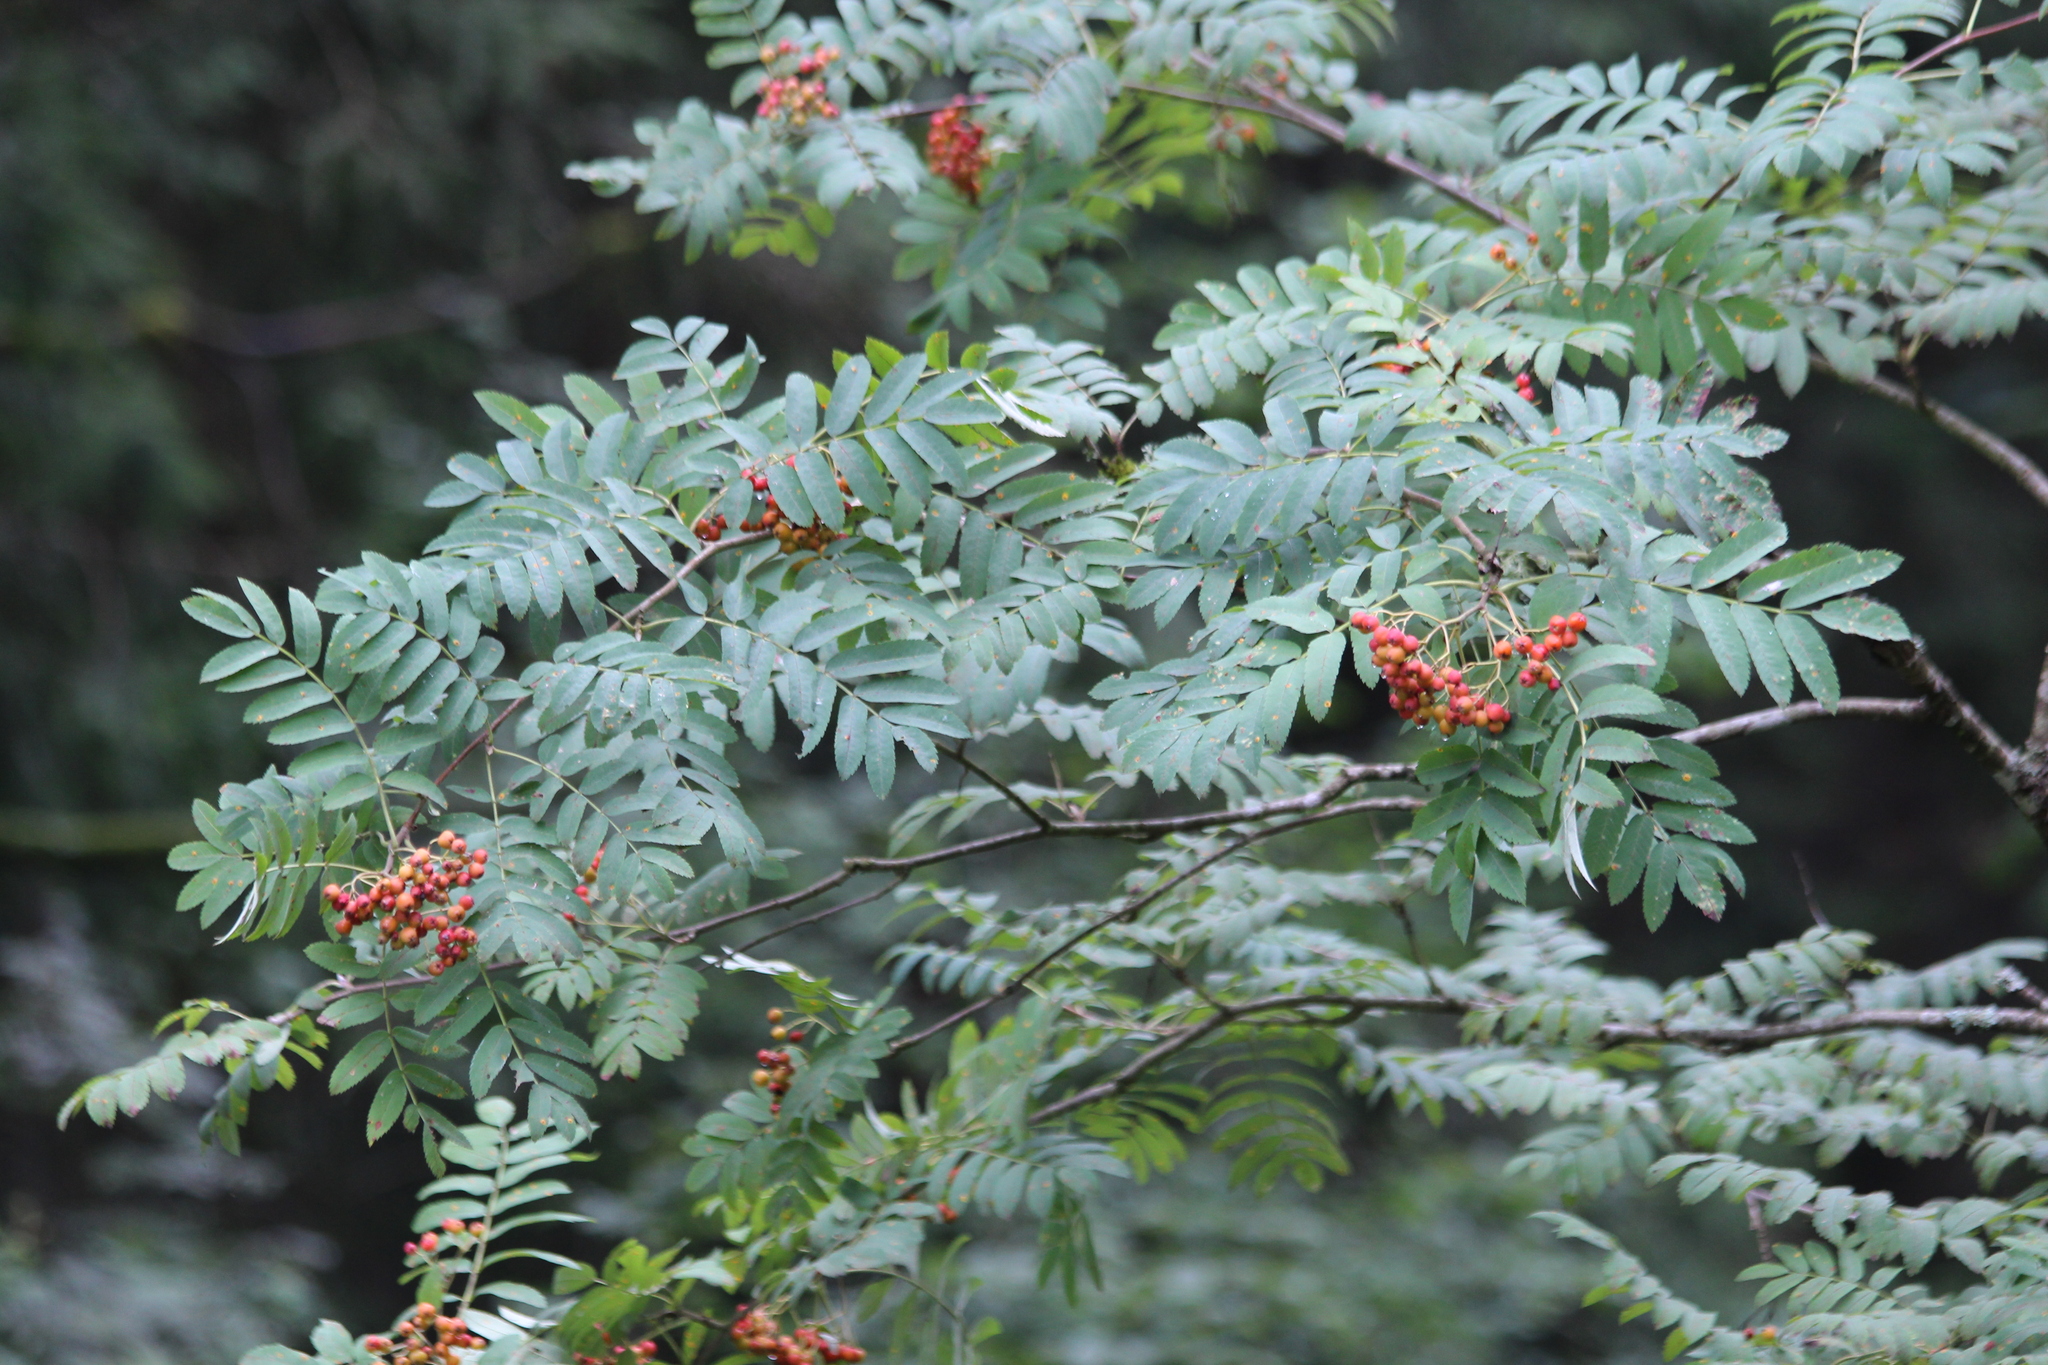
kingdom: Plantae
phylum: Tracheophyta
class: Magnoliopsida
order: Rosales
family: Rosaceae
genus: Sorbus
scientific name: Sorbus aucuparia
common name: Rowan
